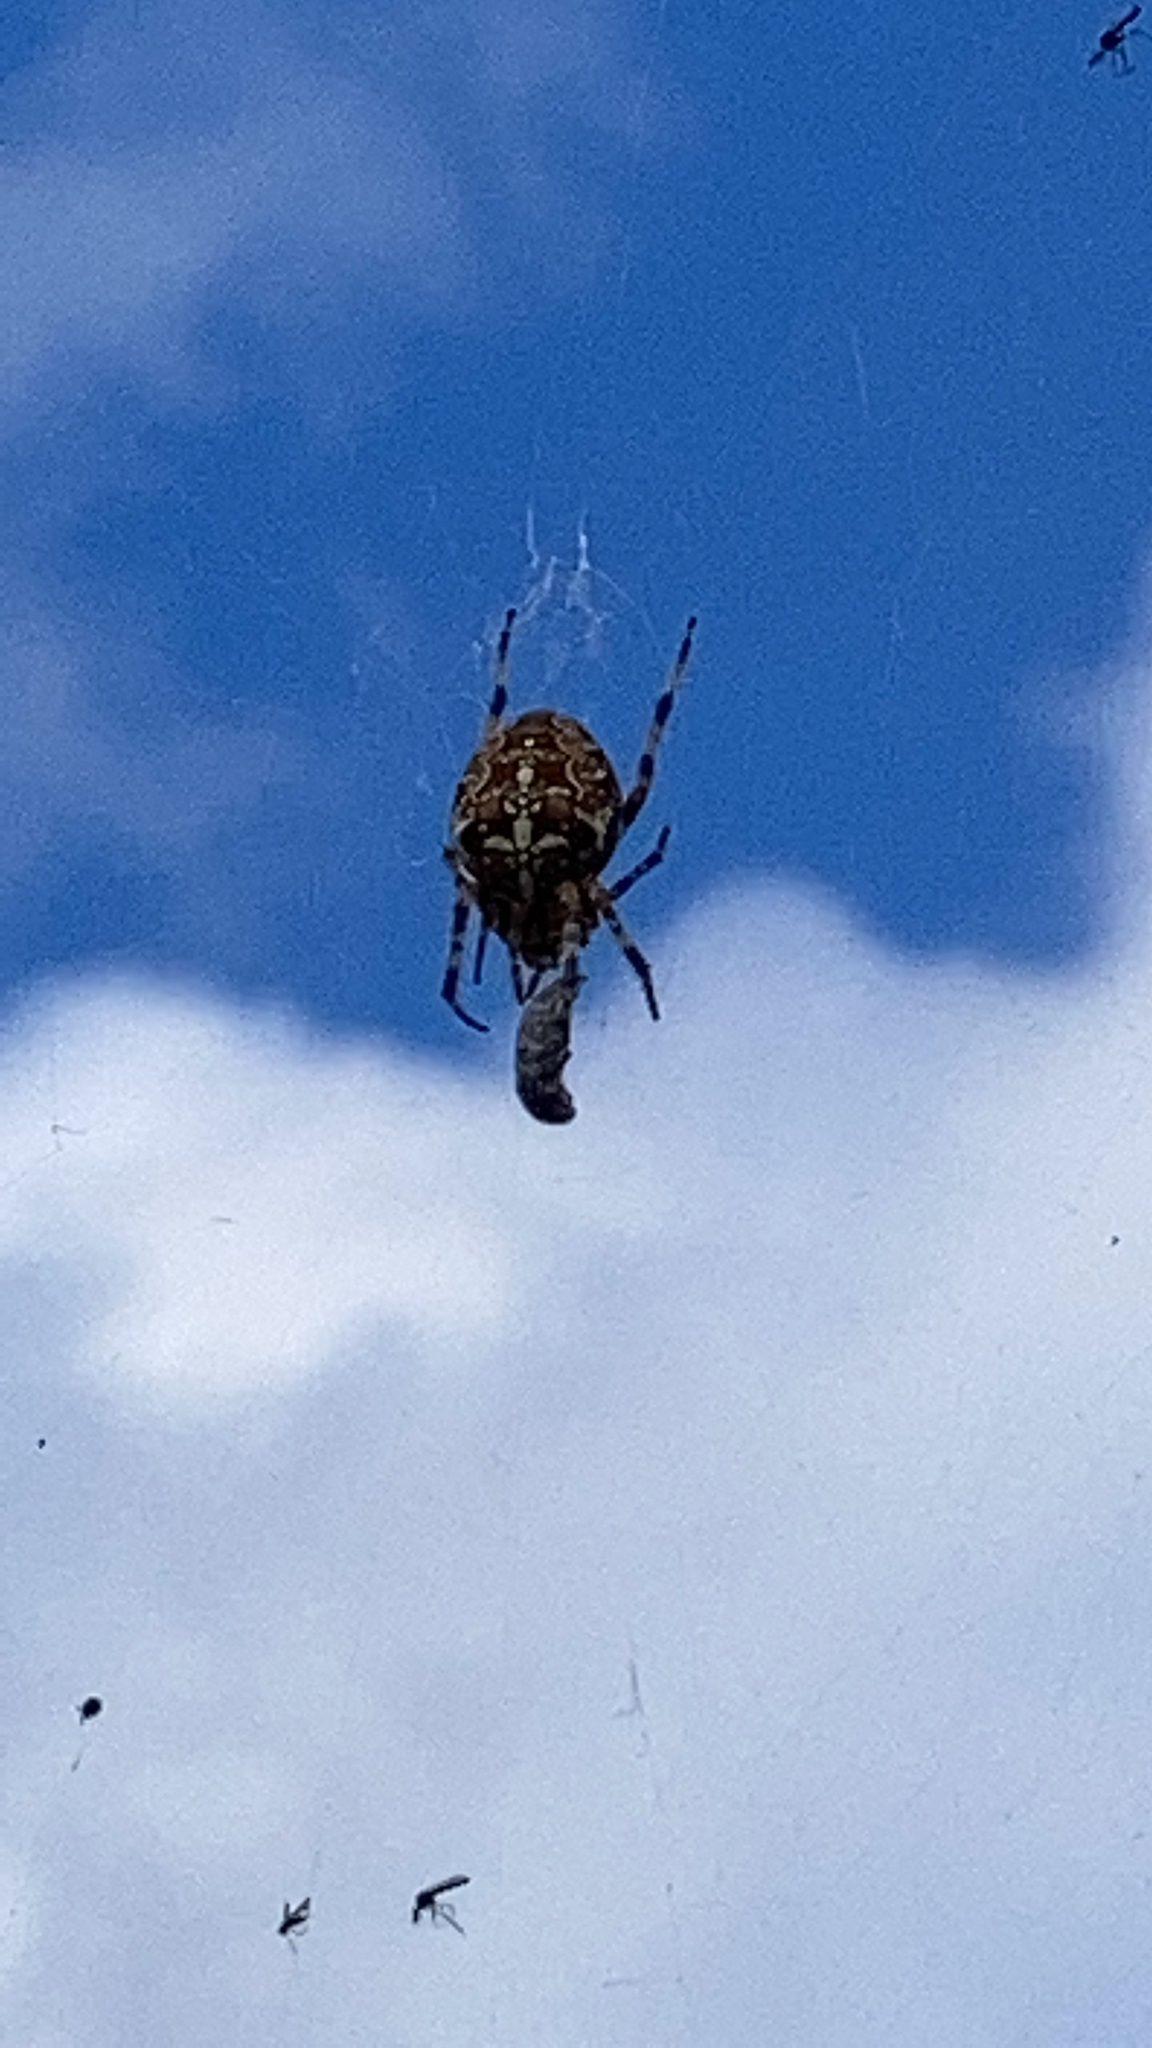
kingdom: Animalia
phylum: Arthropoda
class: Arachnida
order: Araneae
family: Araneidae
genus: Araneus
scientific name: Araneus diadematus
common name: Cross orbweaver
